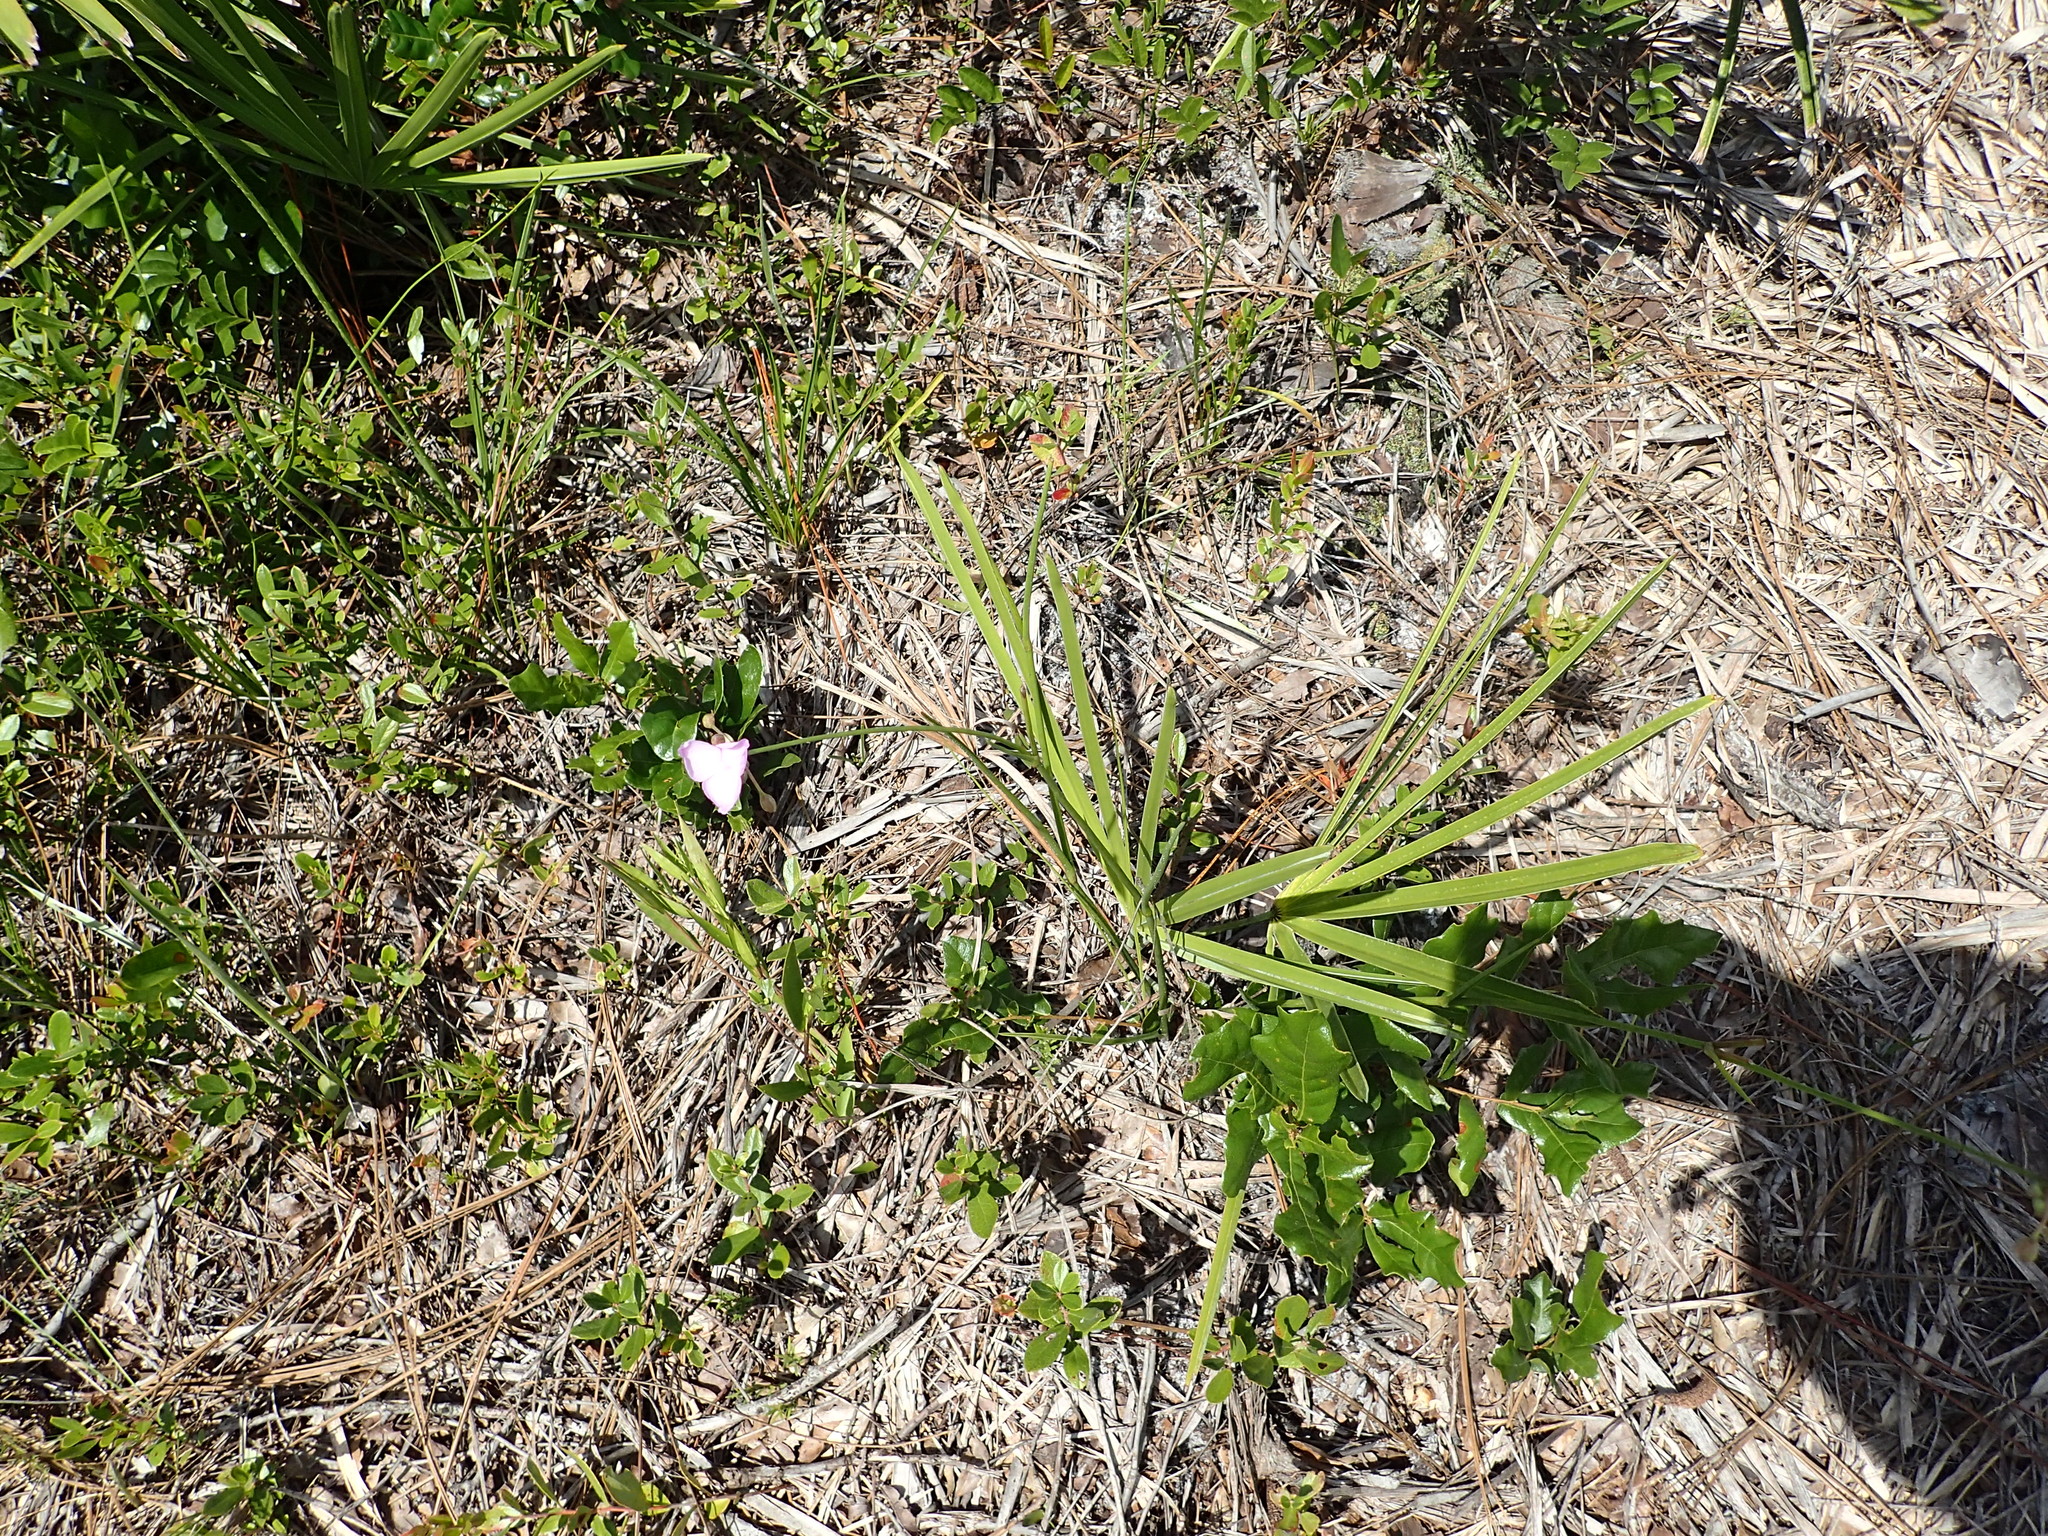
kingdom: Plantae
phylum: Tracheophyta
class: Liliopsida
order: Commelinales
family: Commelinaceae
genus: Callisia
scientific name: Callisia ornata
